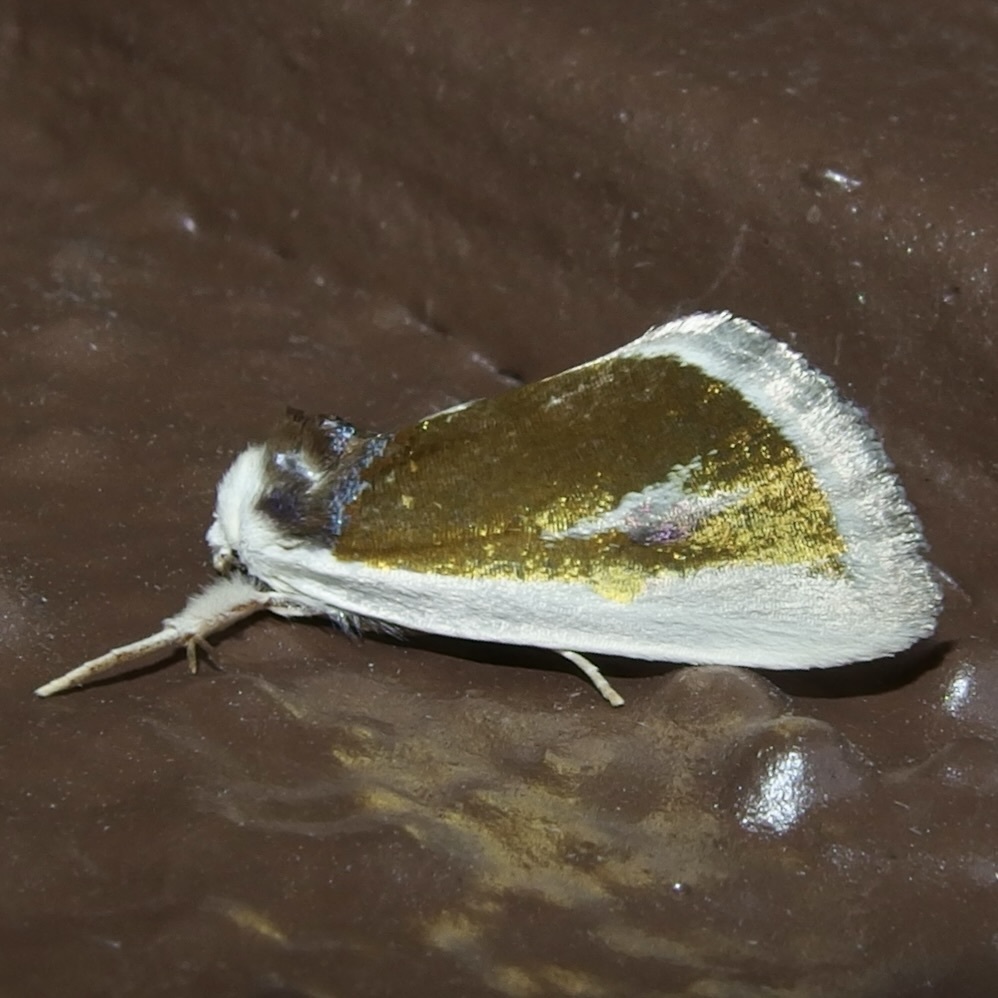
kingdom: Animalia
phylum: Arthropoda
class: Insecta
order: Lepidoptera
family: Noctuidae
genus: Neumoegenia
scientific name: Neumoegenia poetica
